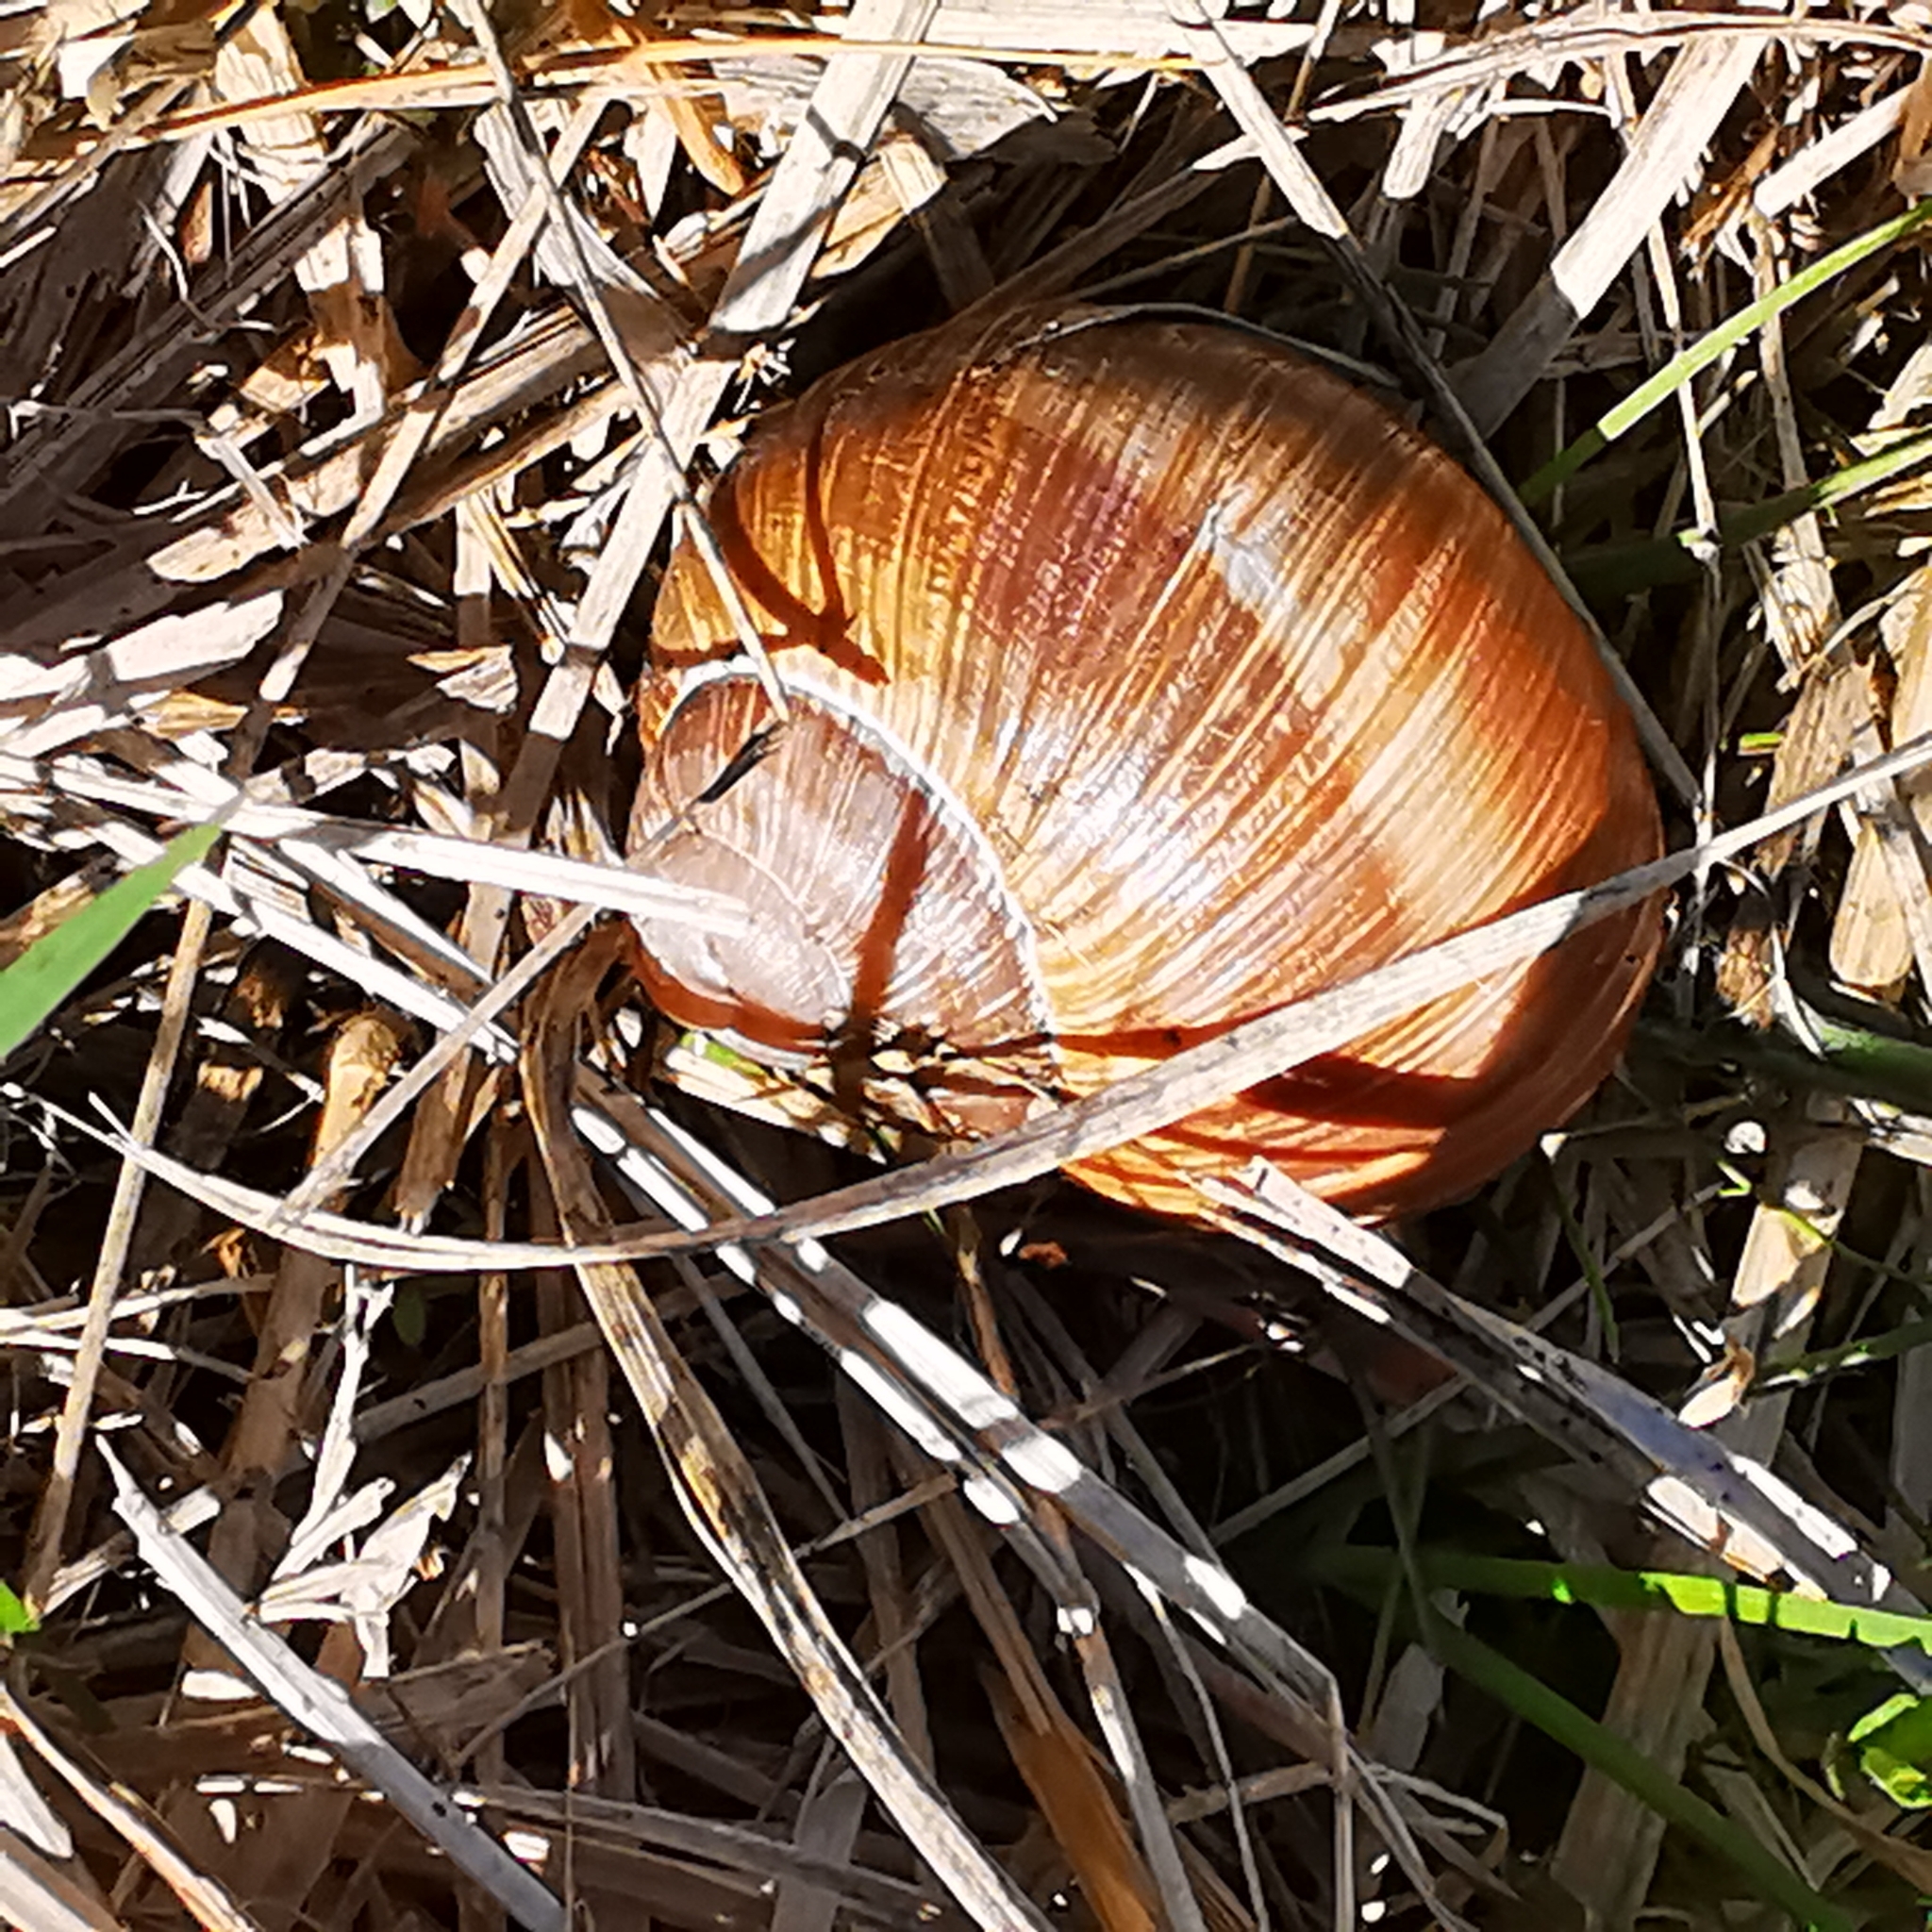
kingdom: Animalia
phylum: Mollusca
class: Gastropoda
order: Stylommatophora
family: Helicidae
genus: Helix
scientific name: Helix pomatia
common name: Roman snail
